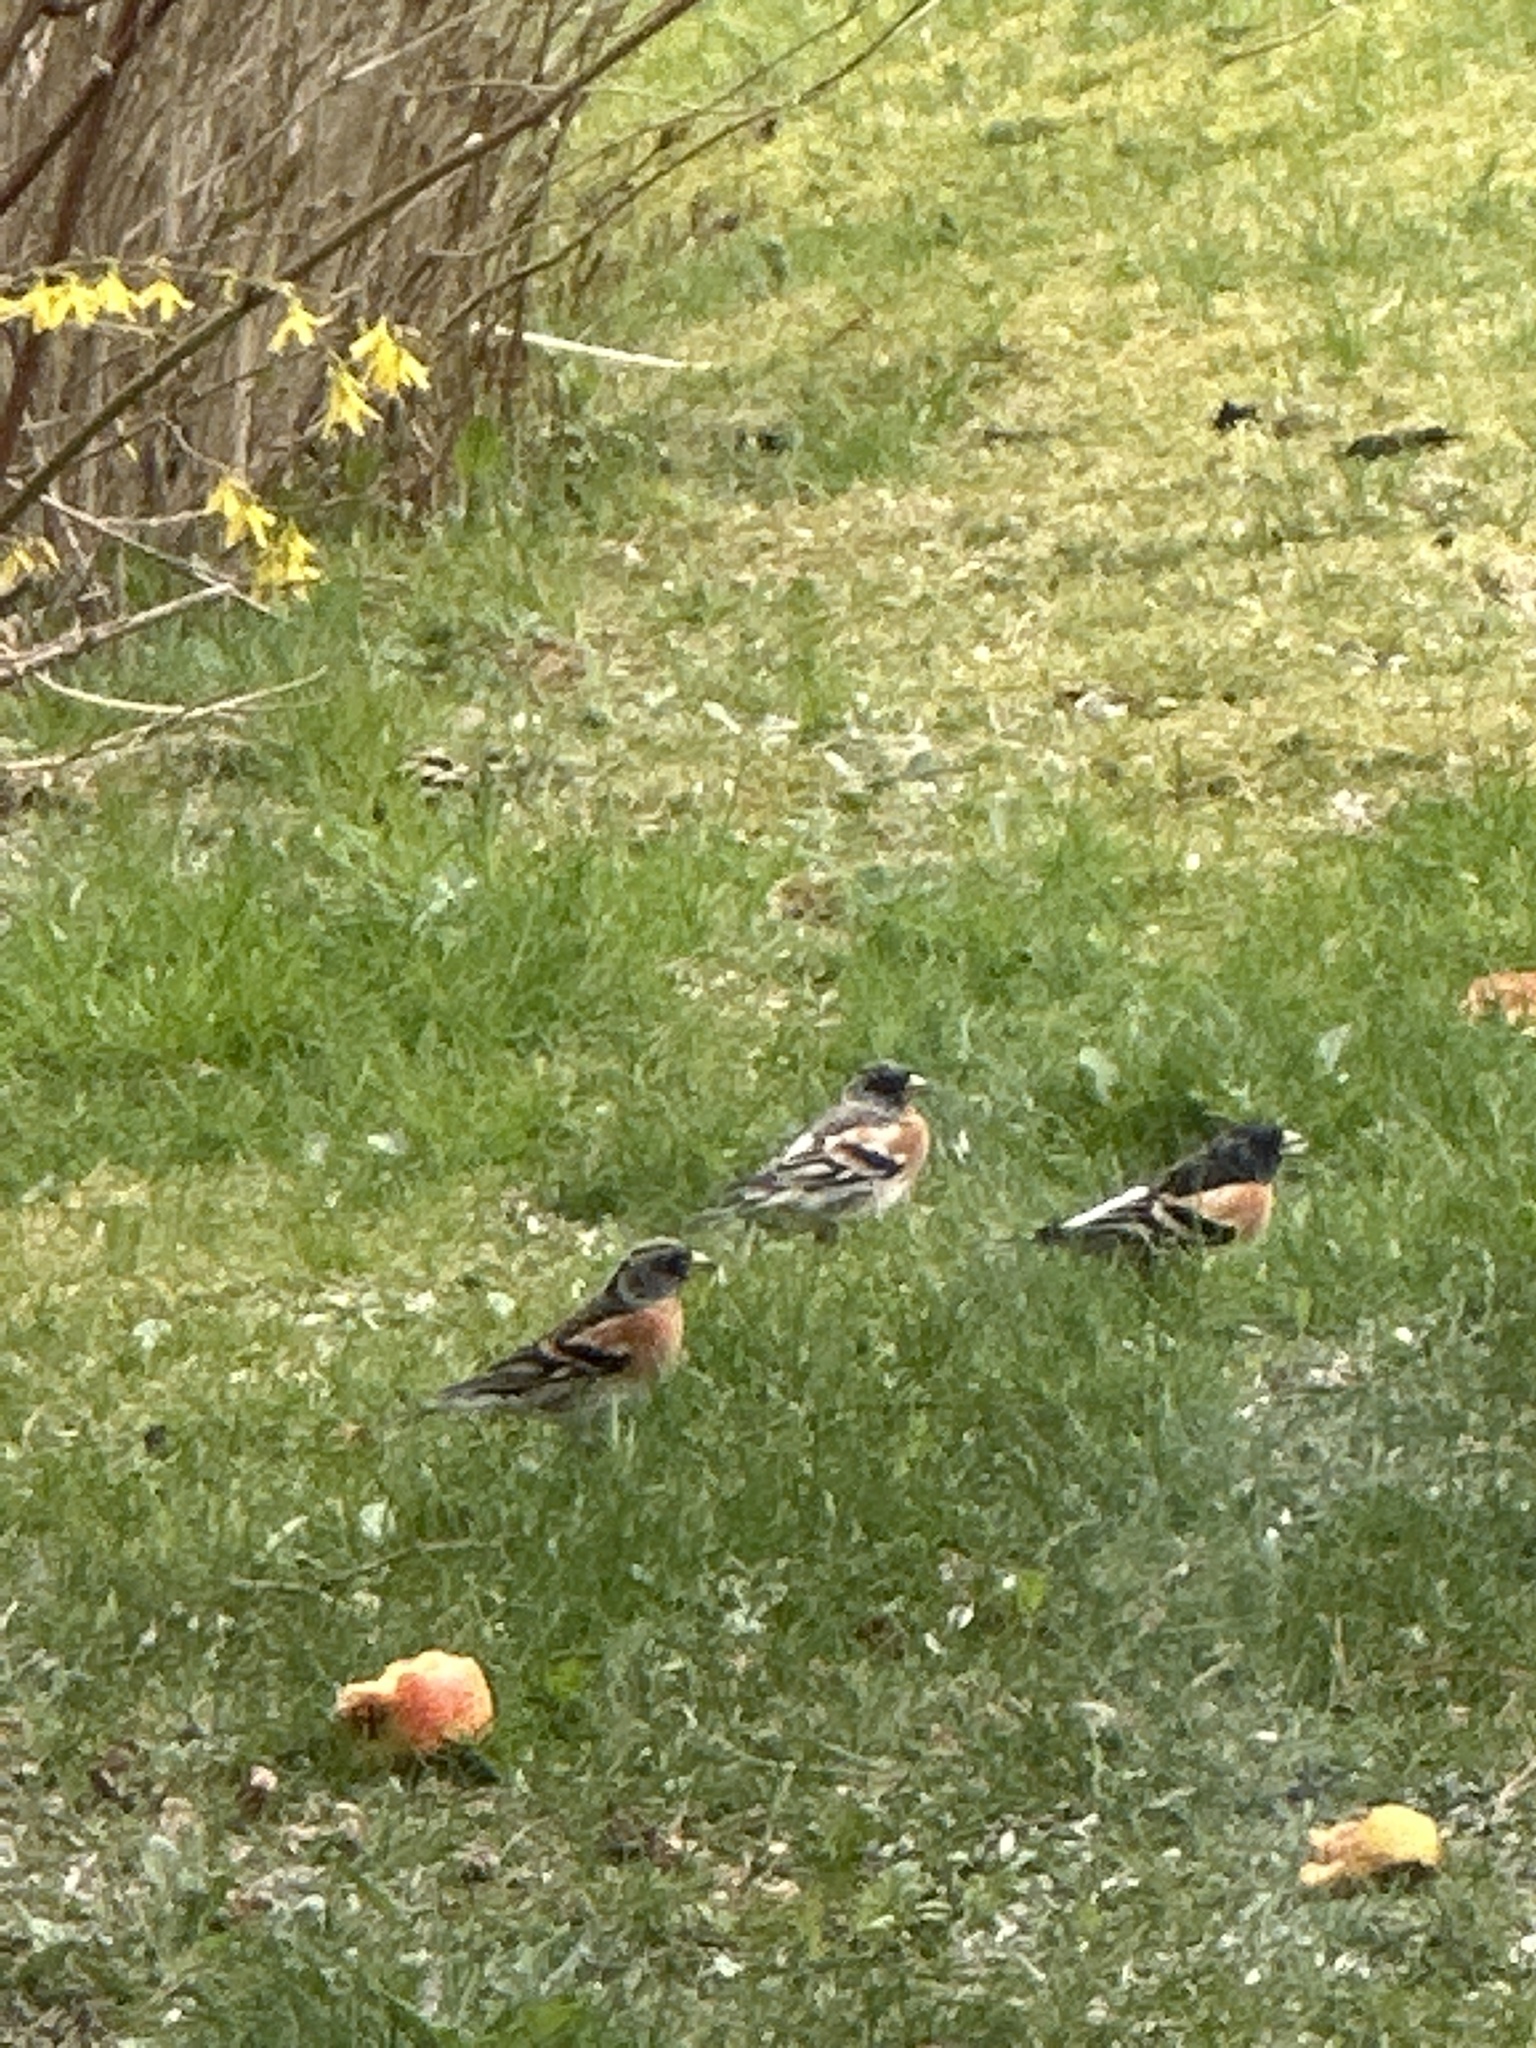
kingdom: Animalia
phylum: Chordata
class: Aves
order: Passeriformes
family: Fringillidae
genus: Fringilla
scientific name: Fringilla montifringilla
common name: Brambling
